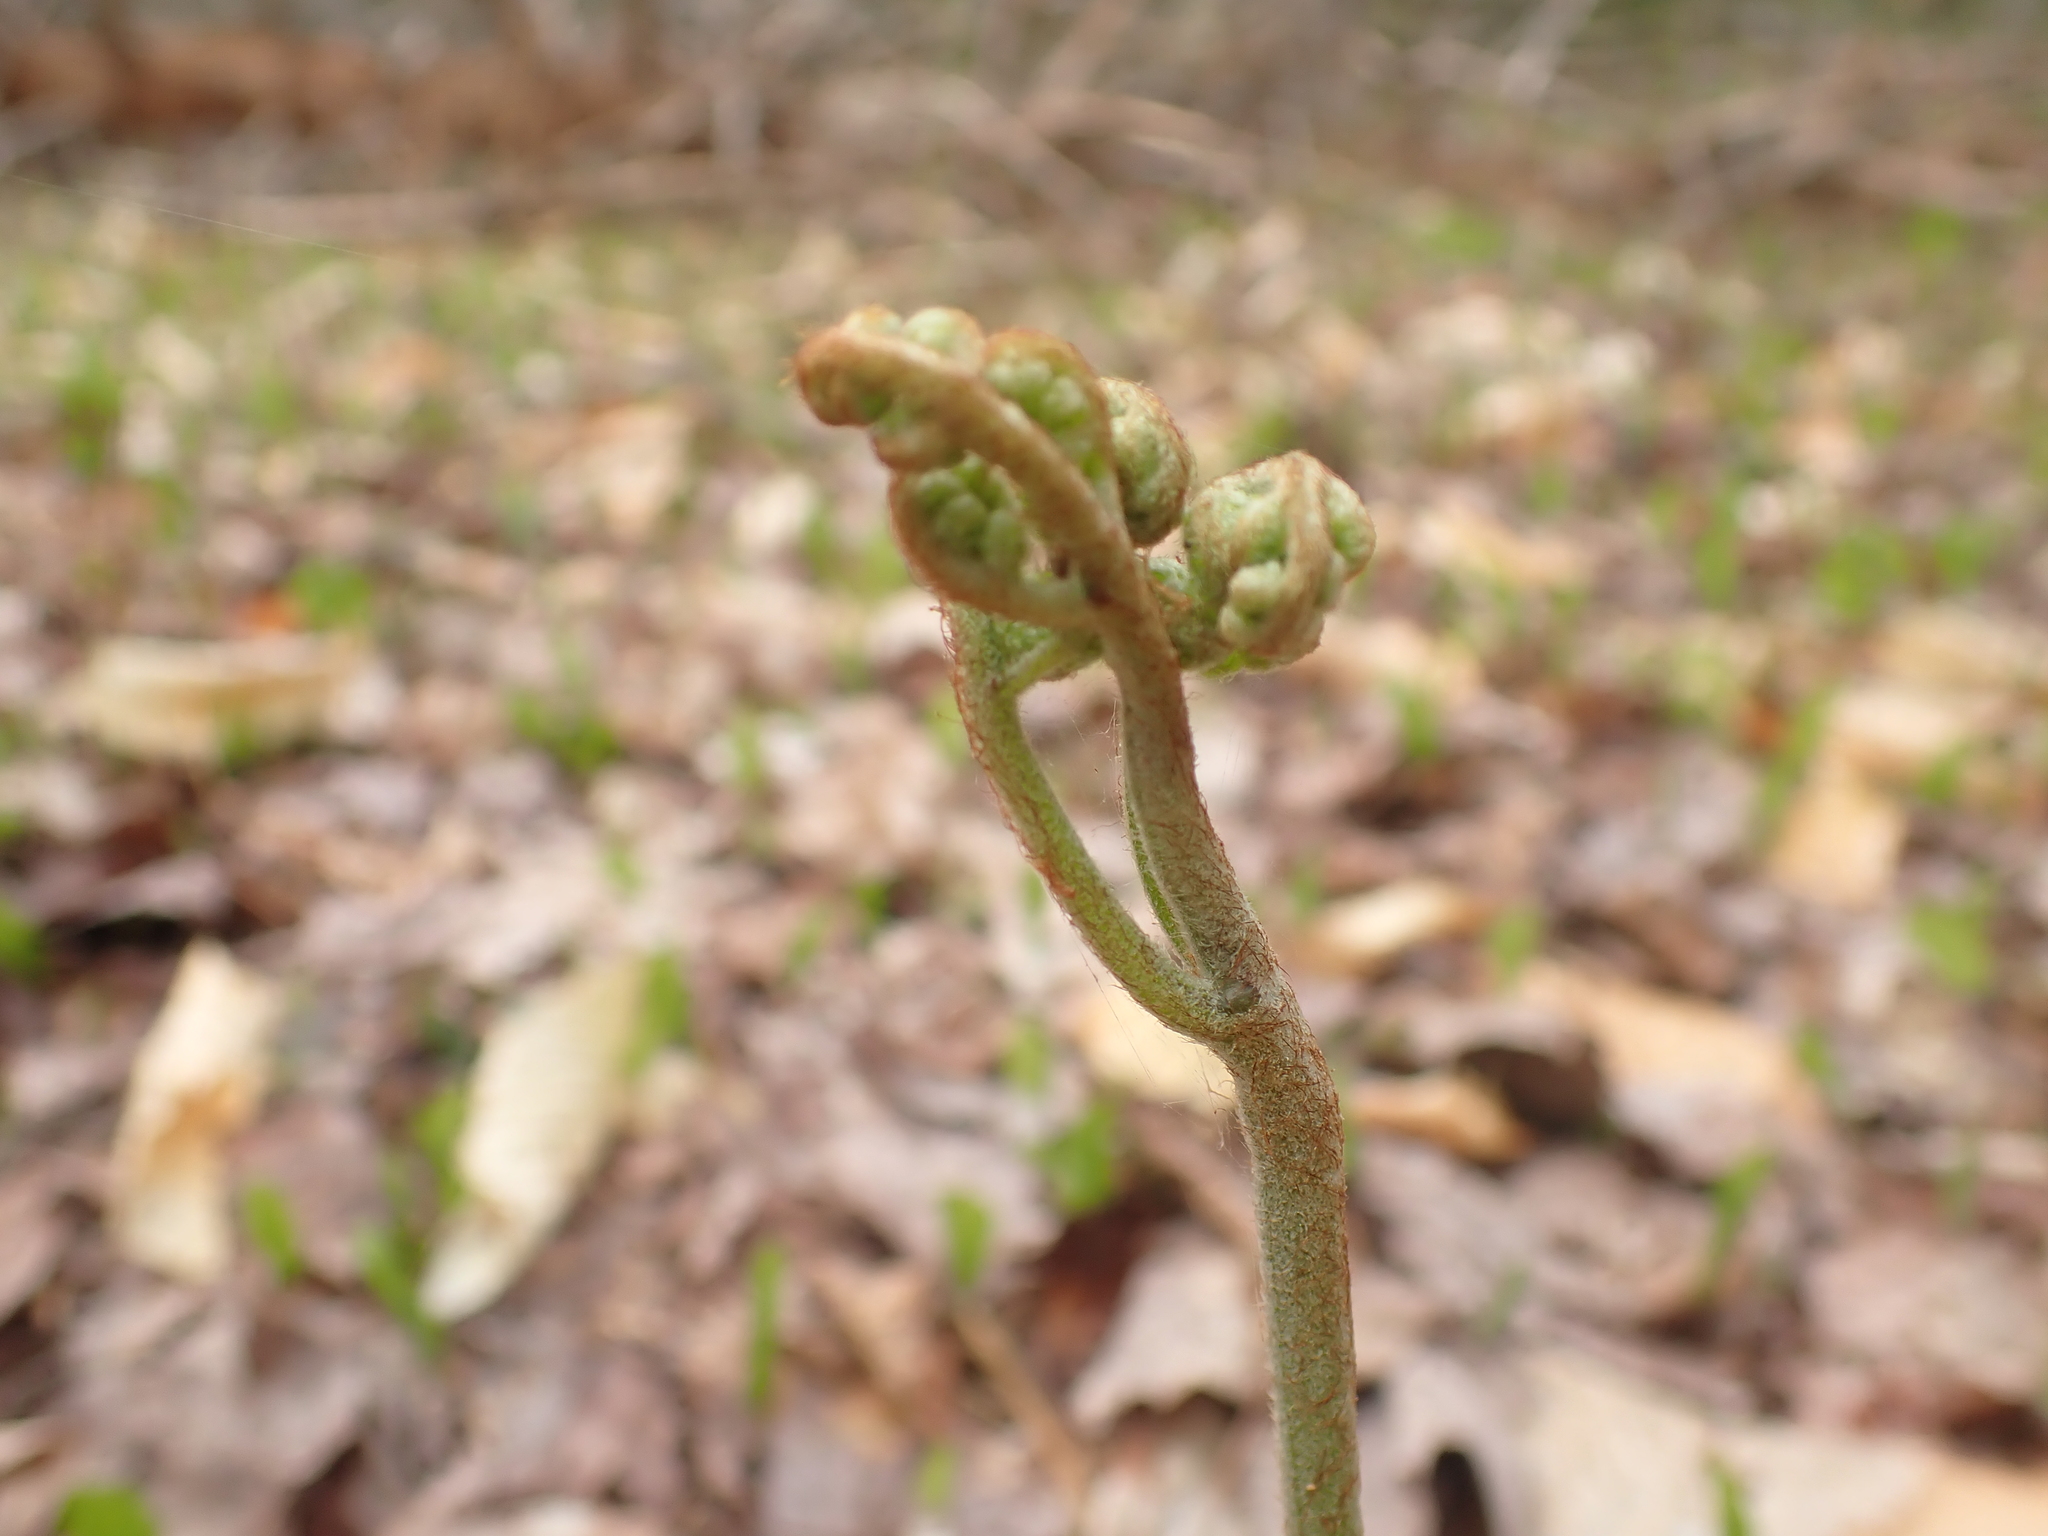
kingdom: Plantae
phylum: Tracheophyta
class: Polypodiopsida
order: Polypodiales
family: Dennstaedtiaceae
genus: Pteridium
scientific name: Pteridium aquilinum
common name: Bracken
